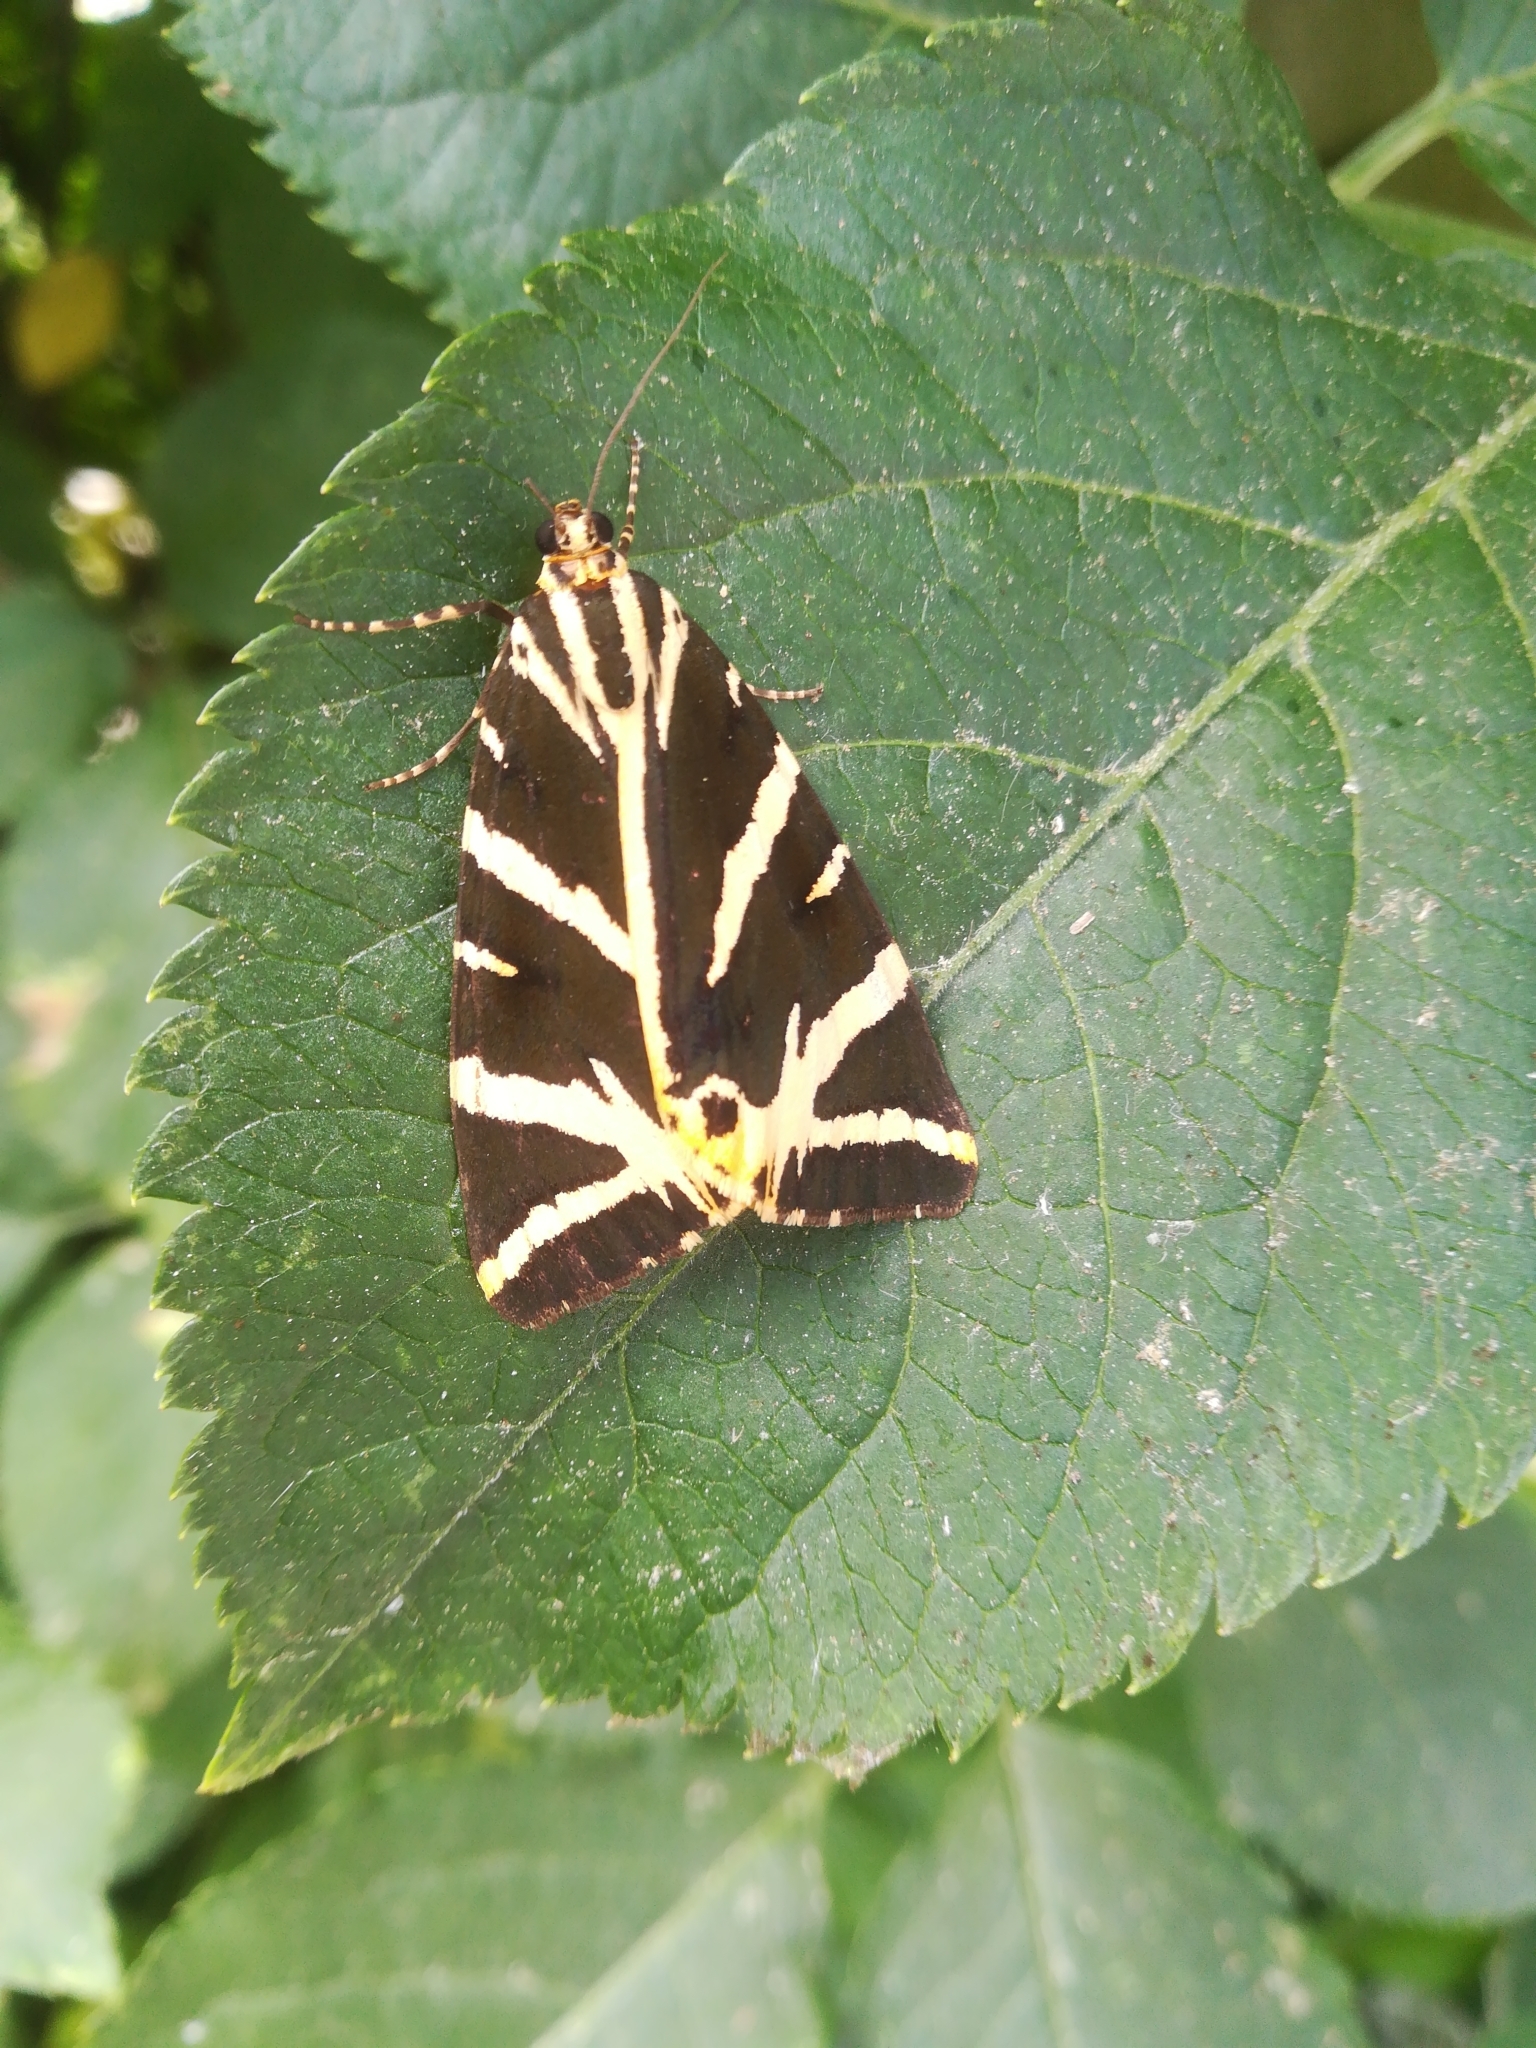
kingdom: Animalia
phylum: Arthropoda
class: Insecta
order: Lepidoptera
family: Erebidae
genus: Euplagia
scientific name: Euplagia quadripunctaria
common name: Jersey tiger
